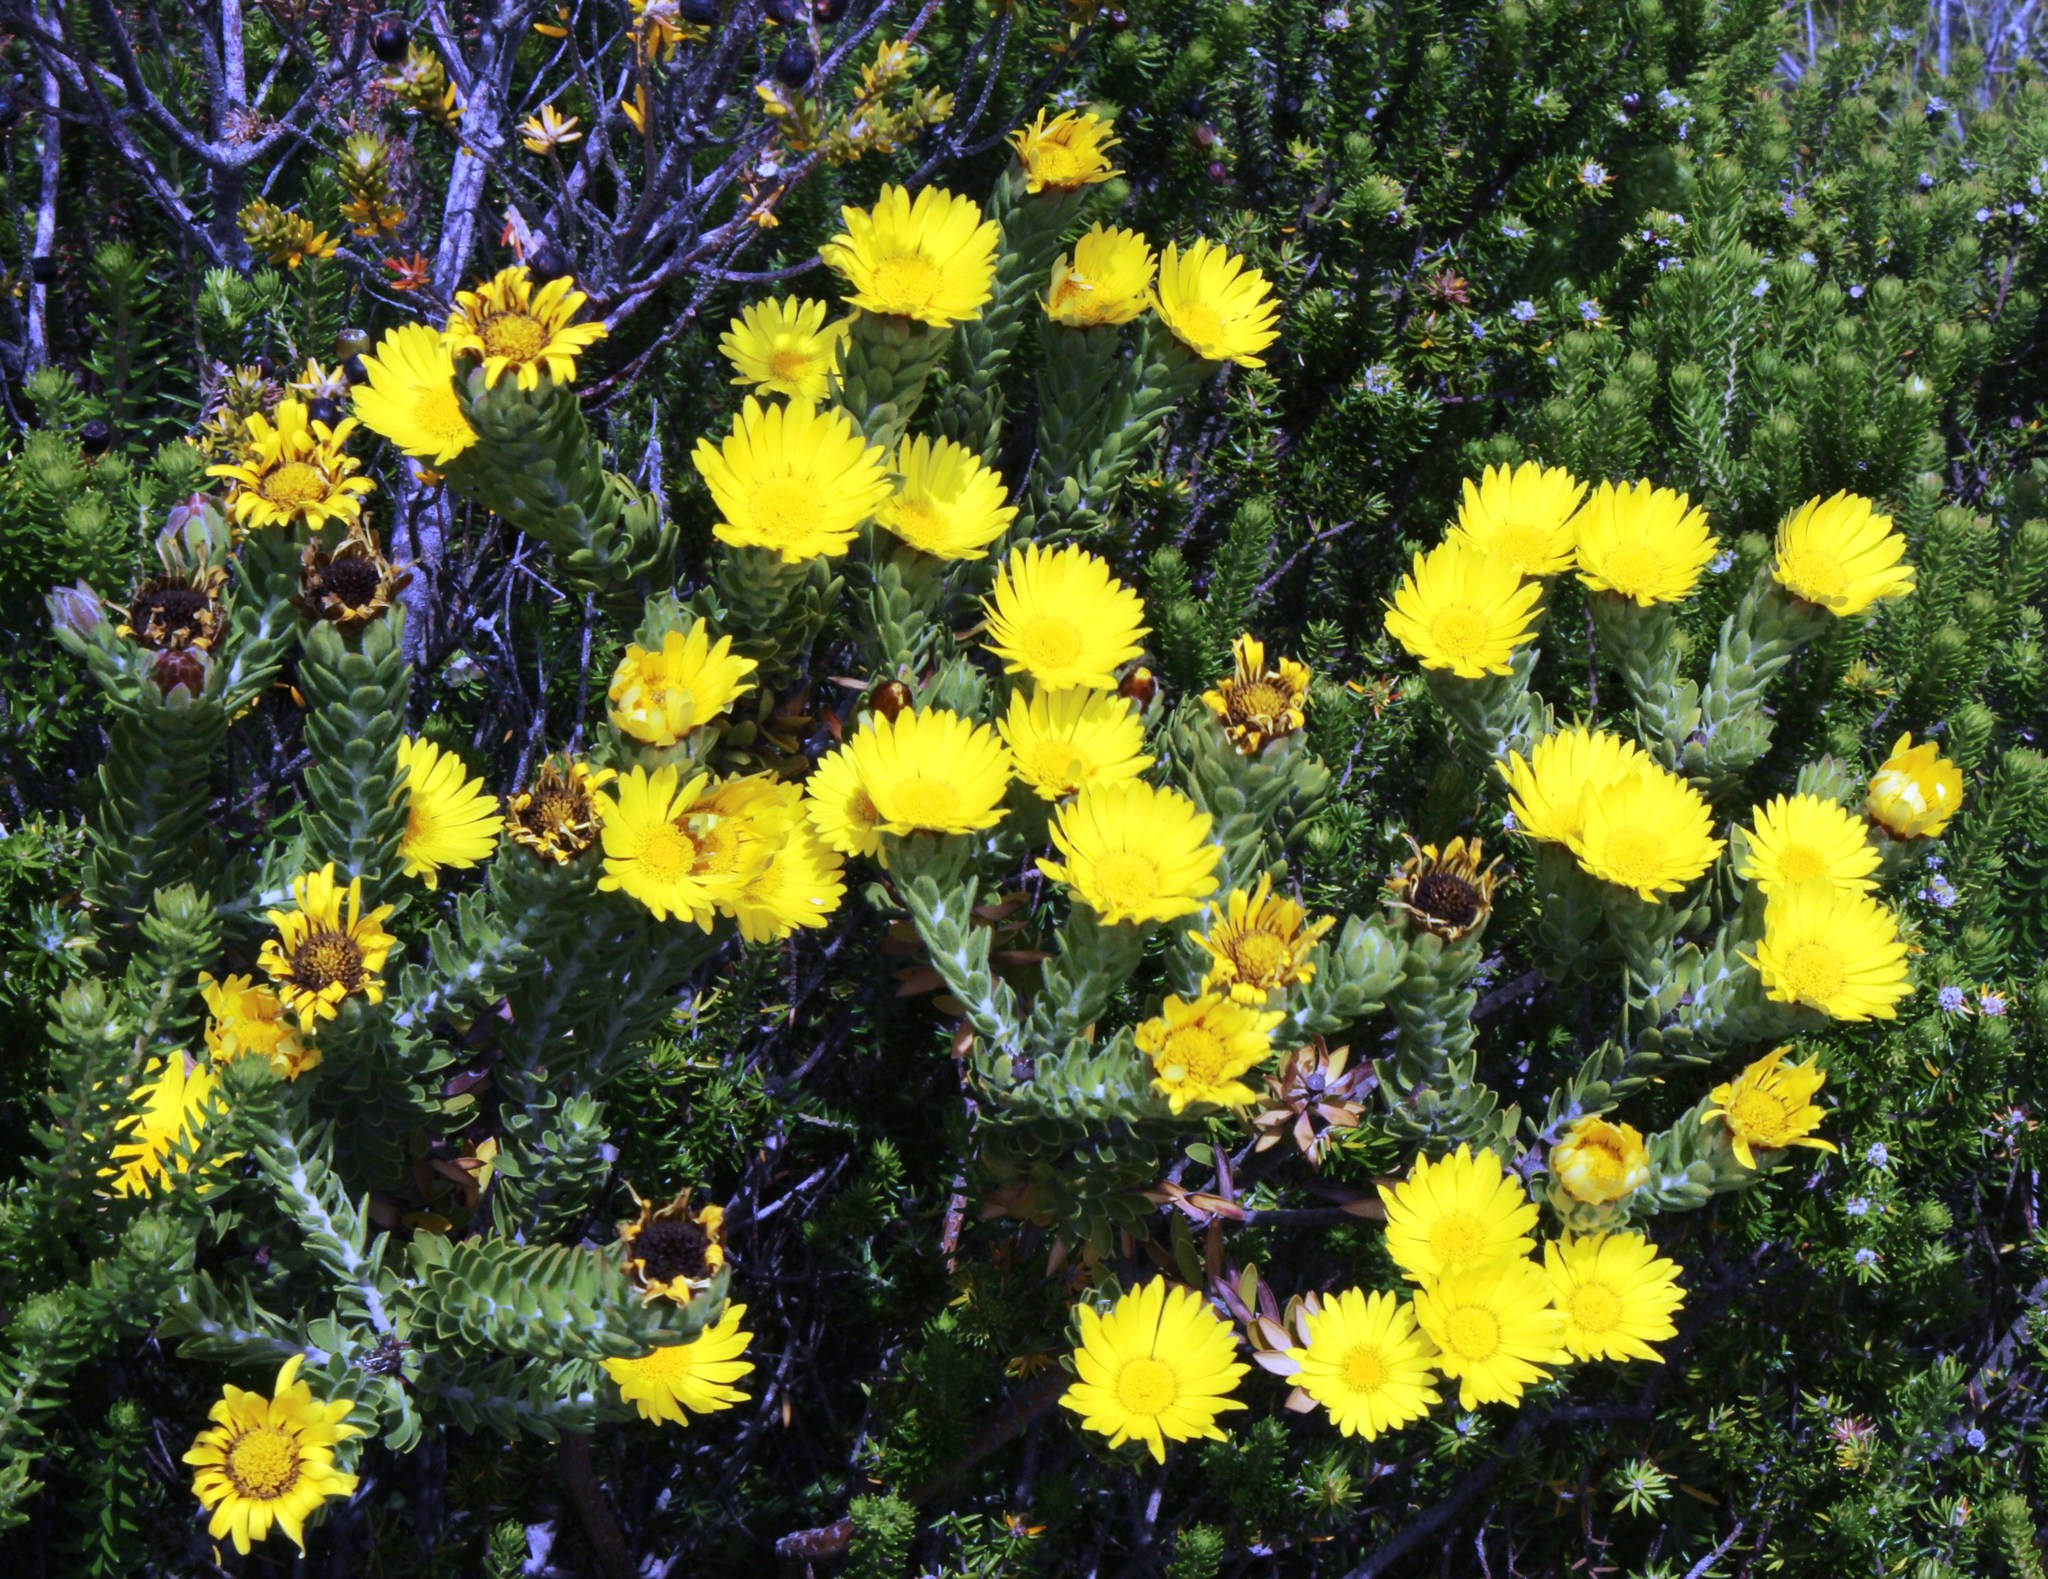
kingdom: Plantae
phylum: Tracheophyta
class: Magnoliopsida
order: Asterales
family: Asteraceae
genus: Oedera
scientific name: Oedera calycina
